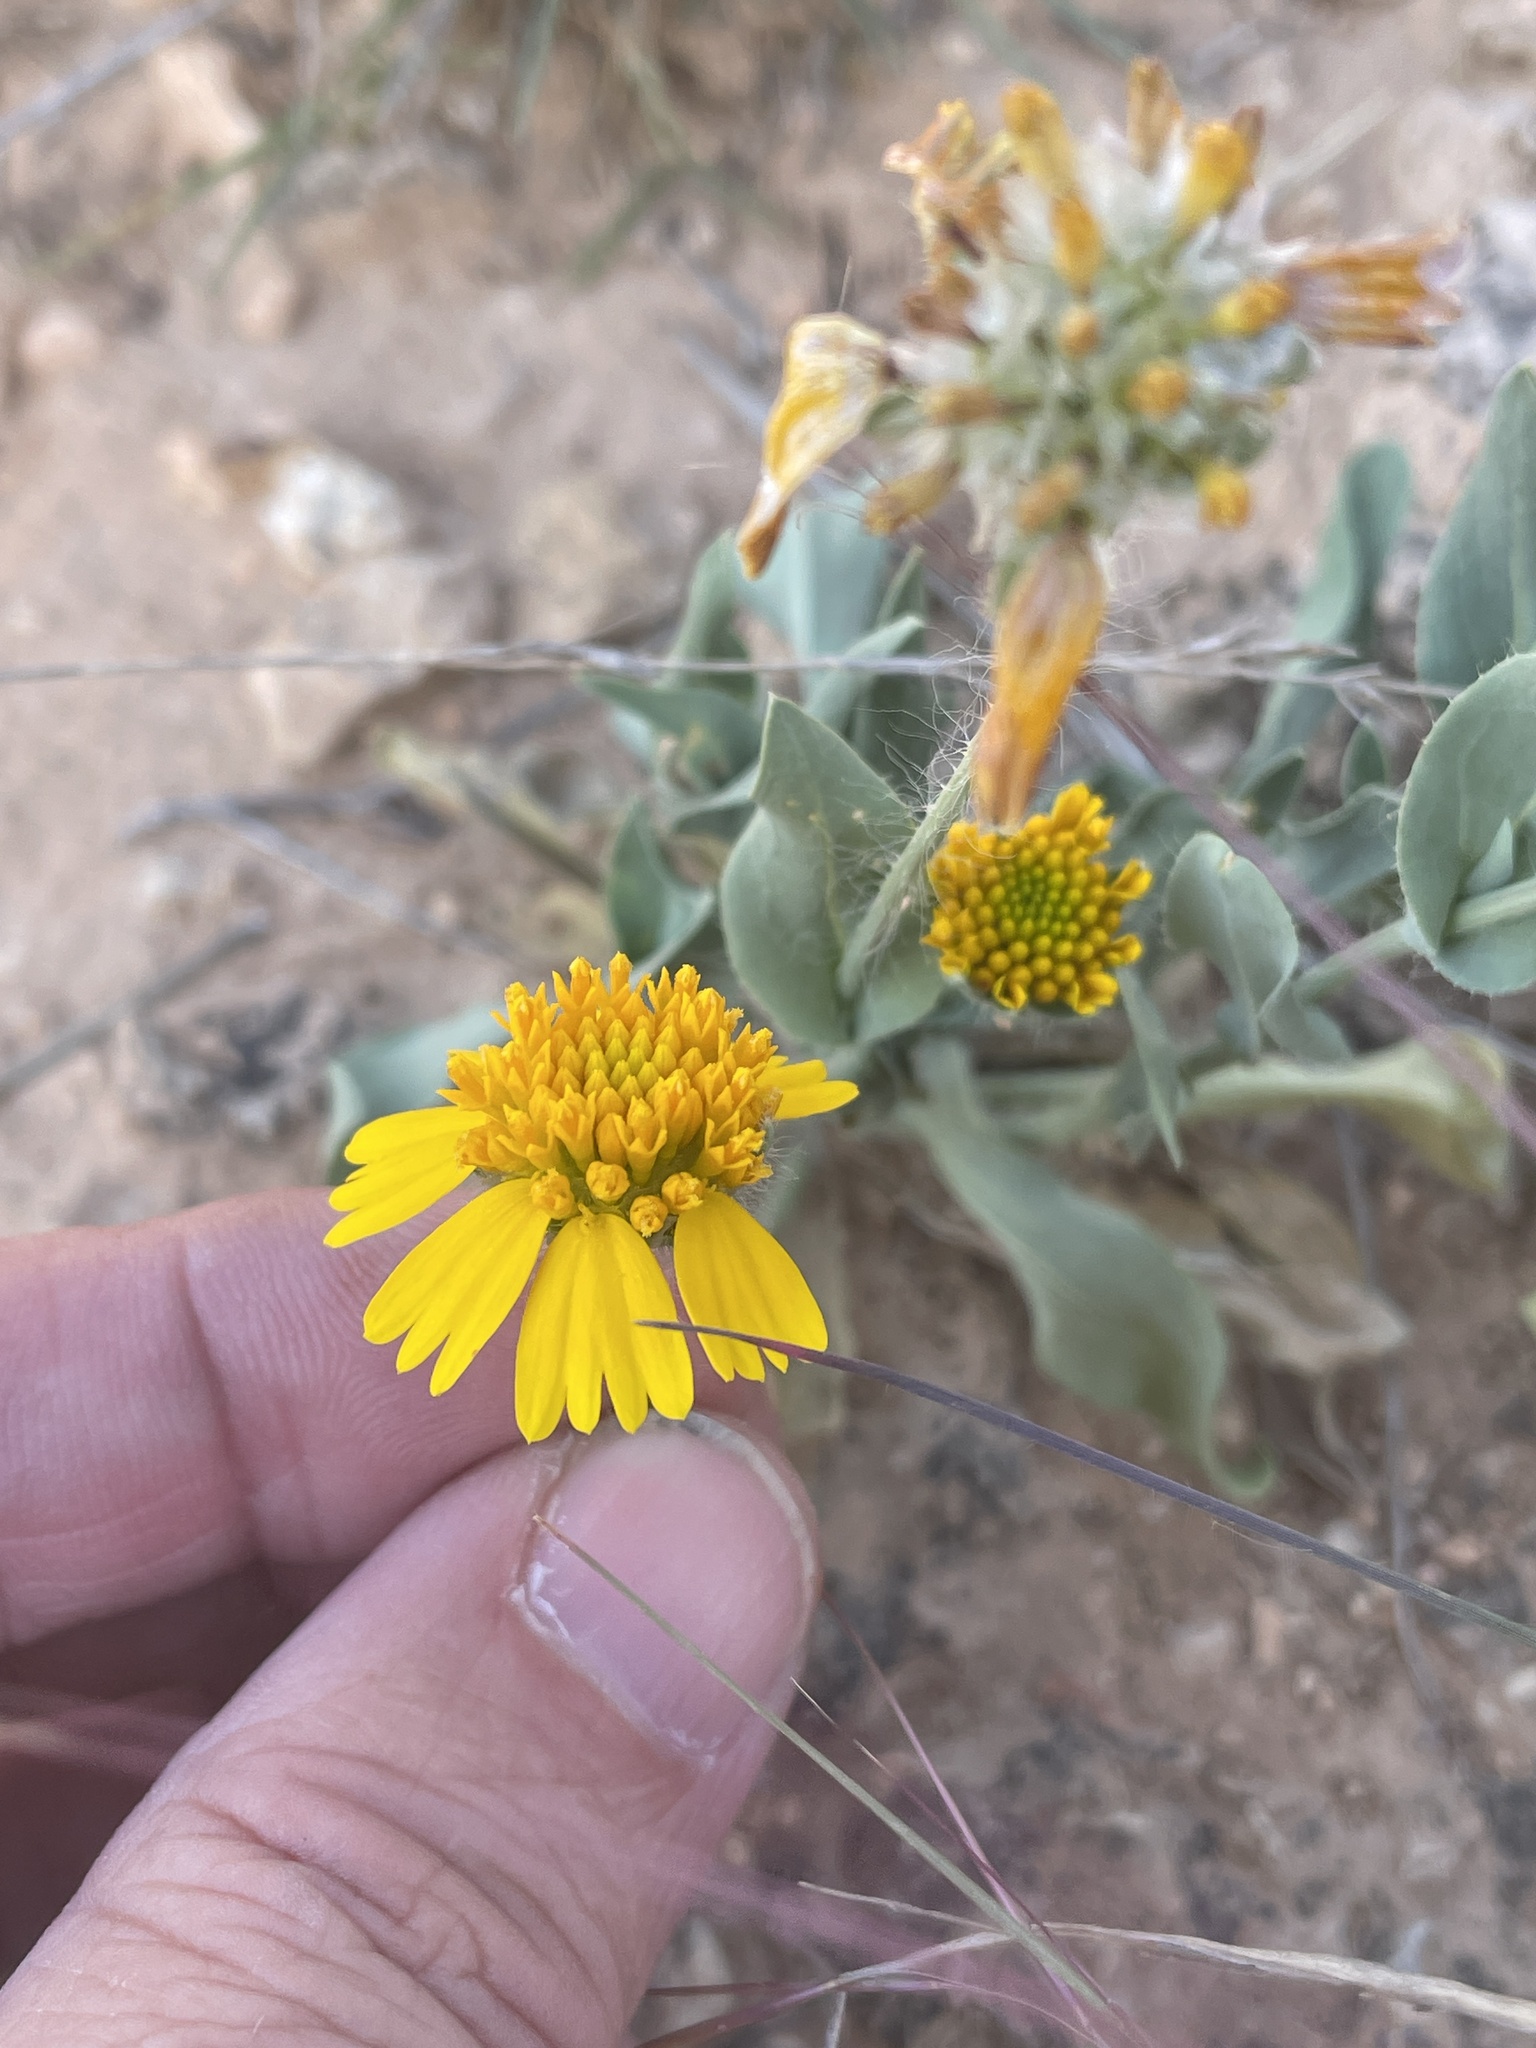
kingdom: Plantae
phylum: Tracheophyta
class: Magnoliopsida
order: Asterales
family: Asteraceae
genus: Amblyolepis
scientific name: Amblyolepis setigera
